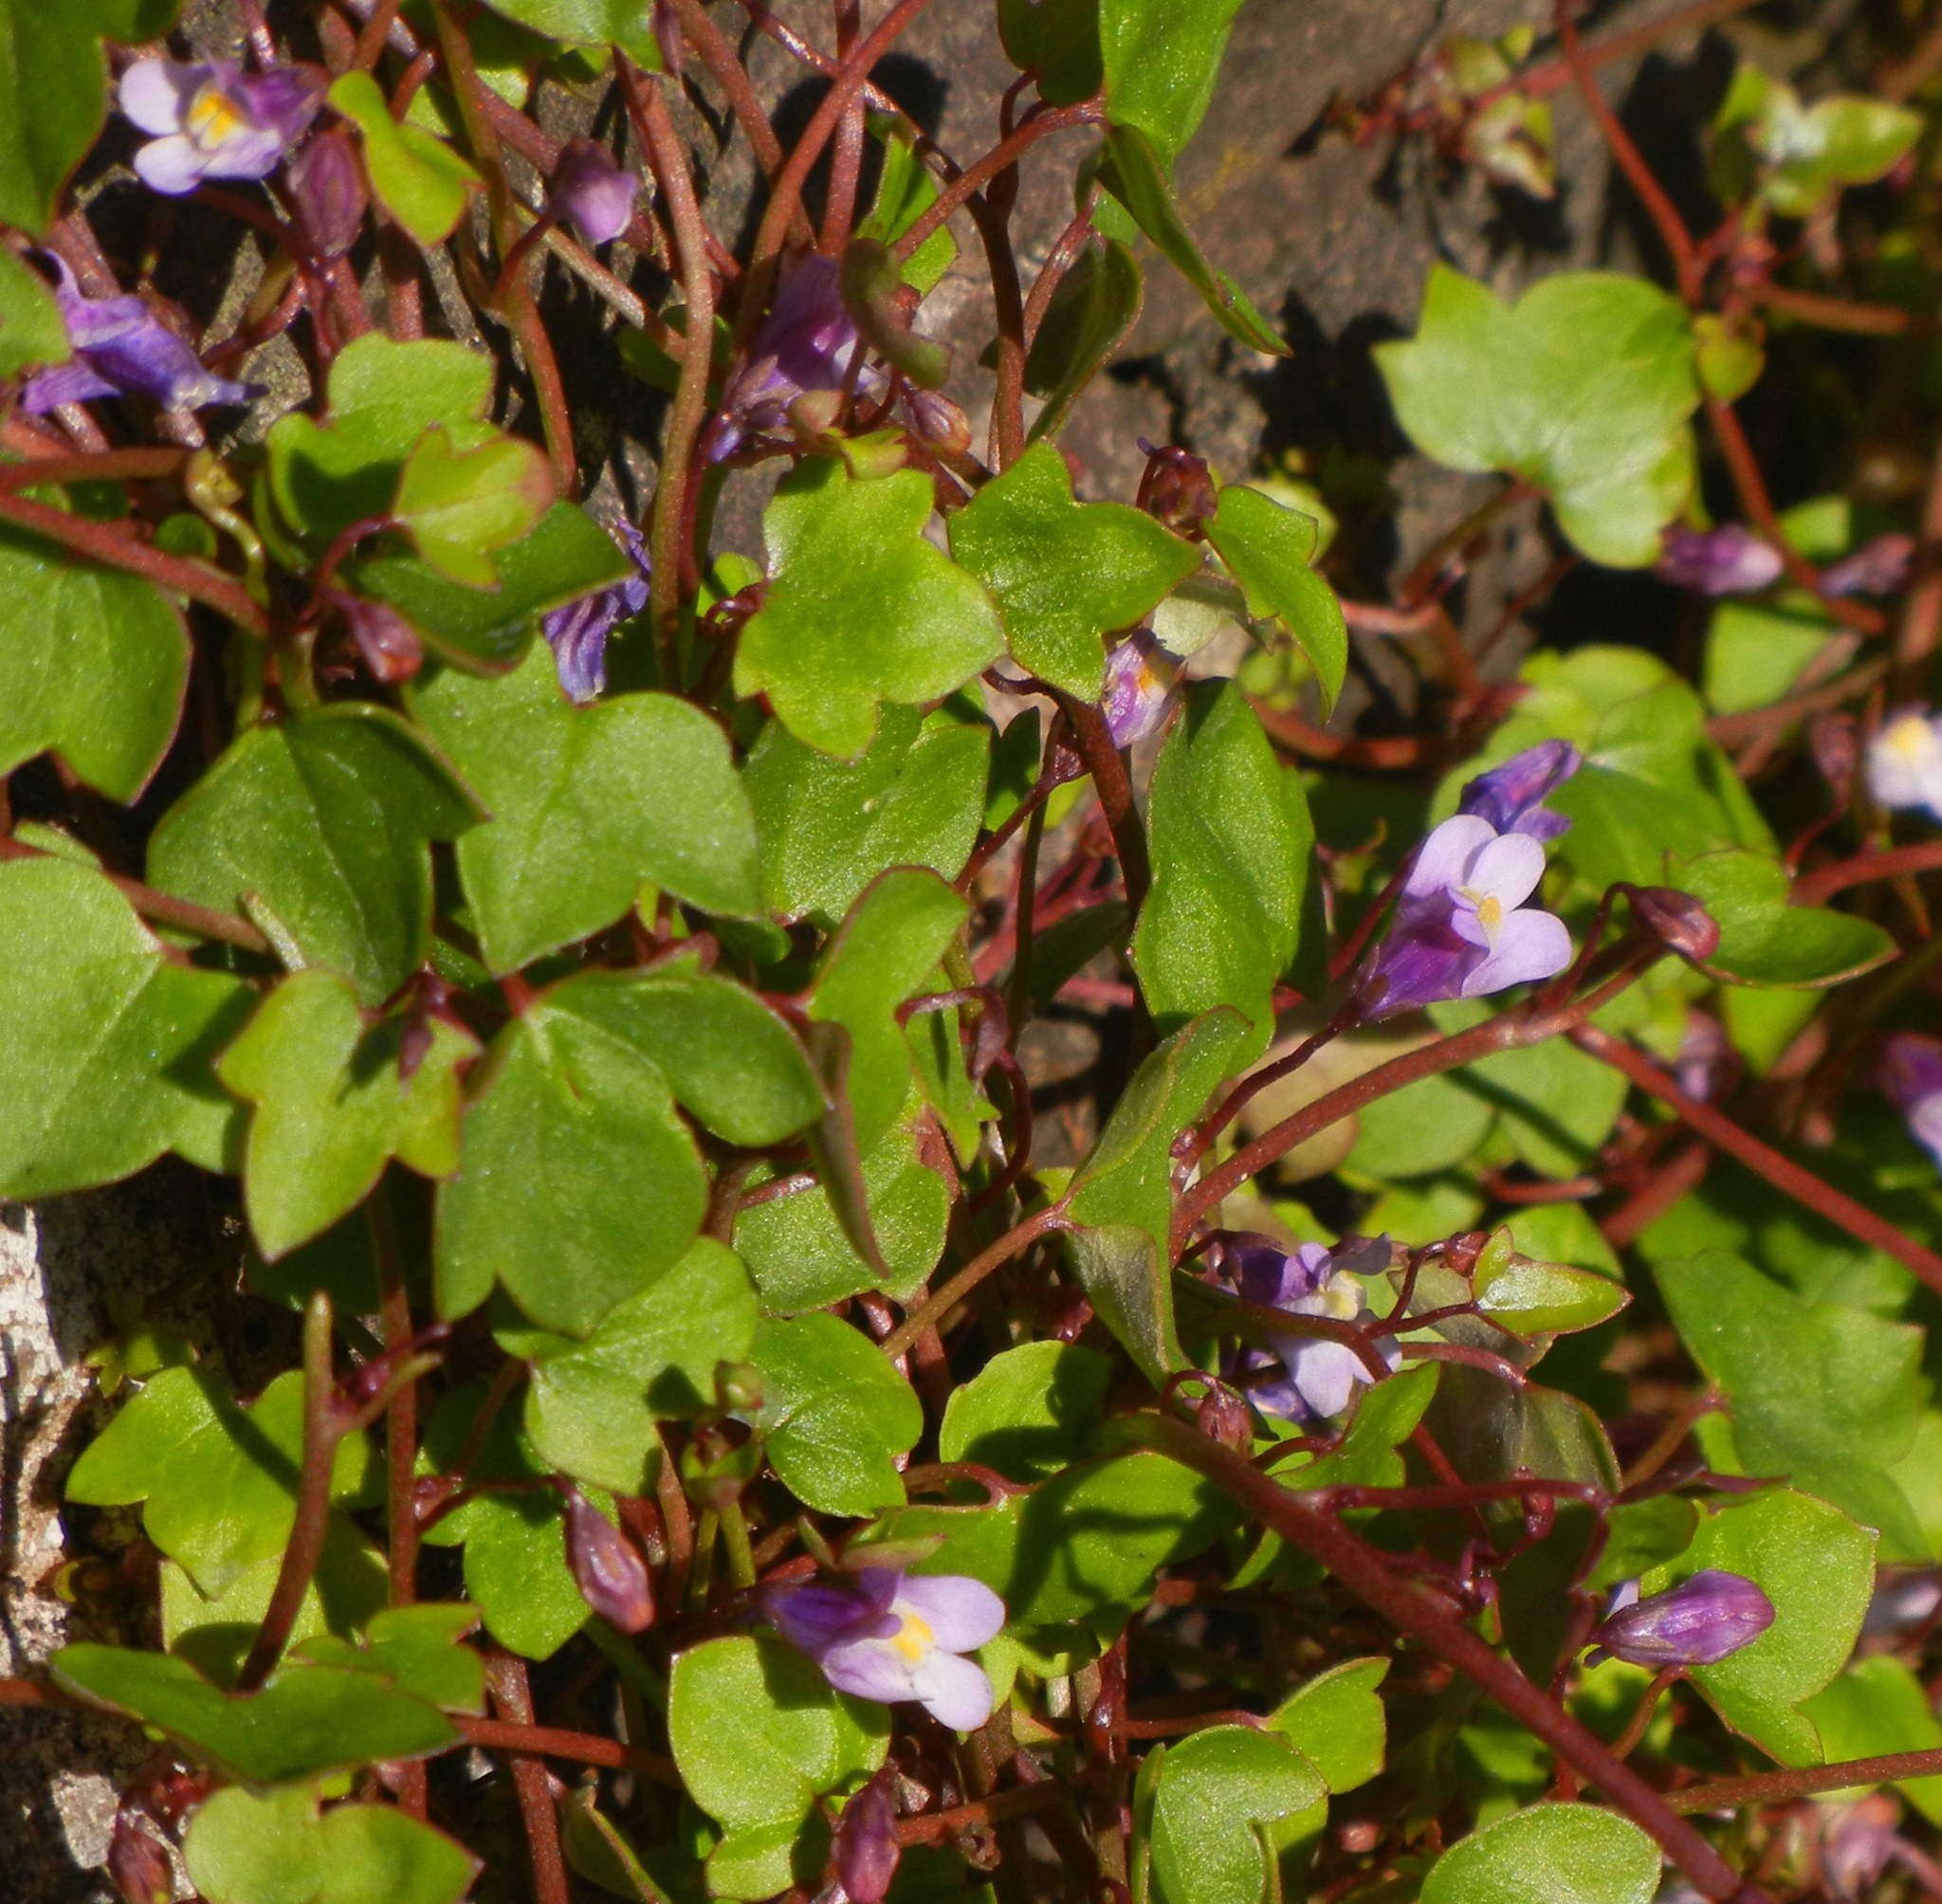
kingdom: Plantae
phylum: Tracheophyta
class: Magnoliopsida
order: Lamiales
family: Plantaginaceae
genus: Cymbalaria
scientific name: Cymbalaria muralis
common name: Ivy-leaved toadflax
